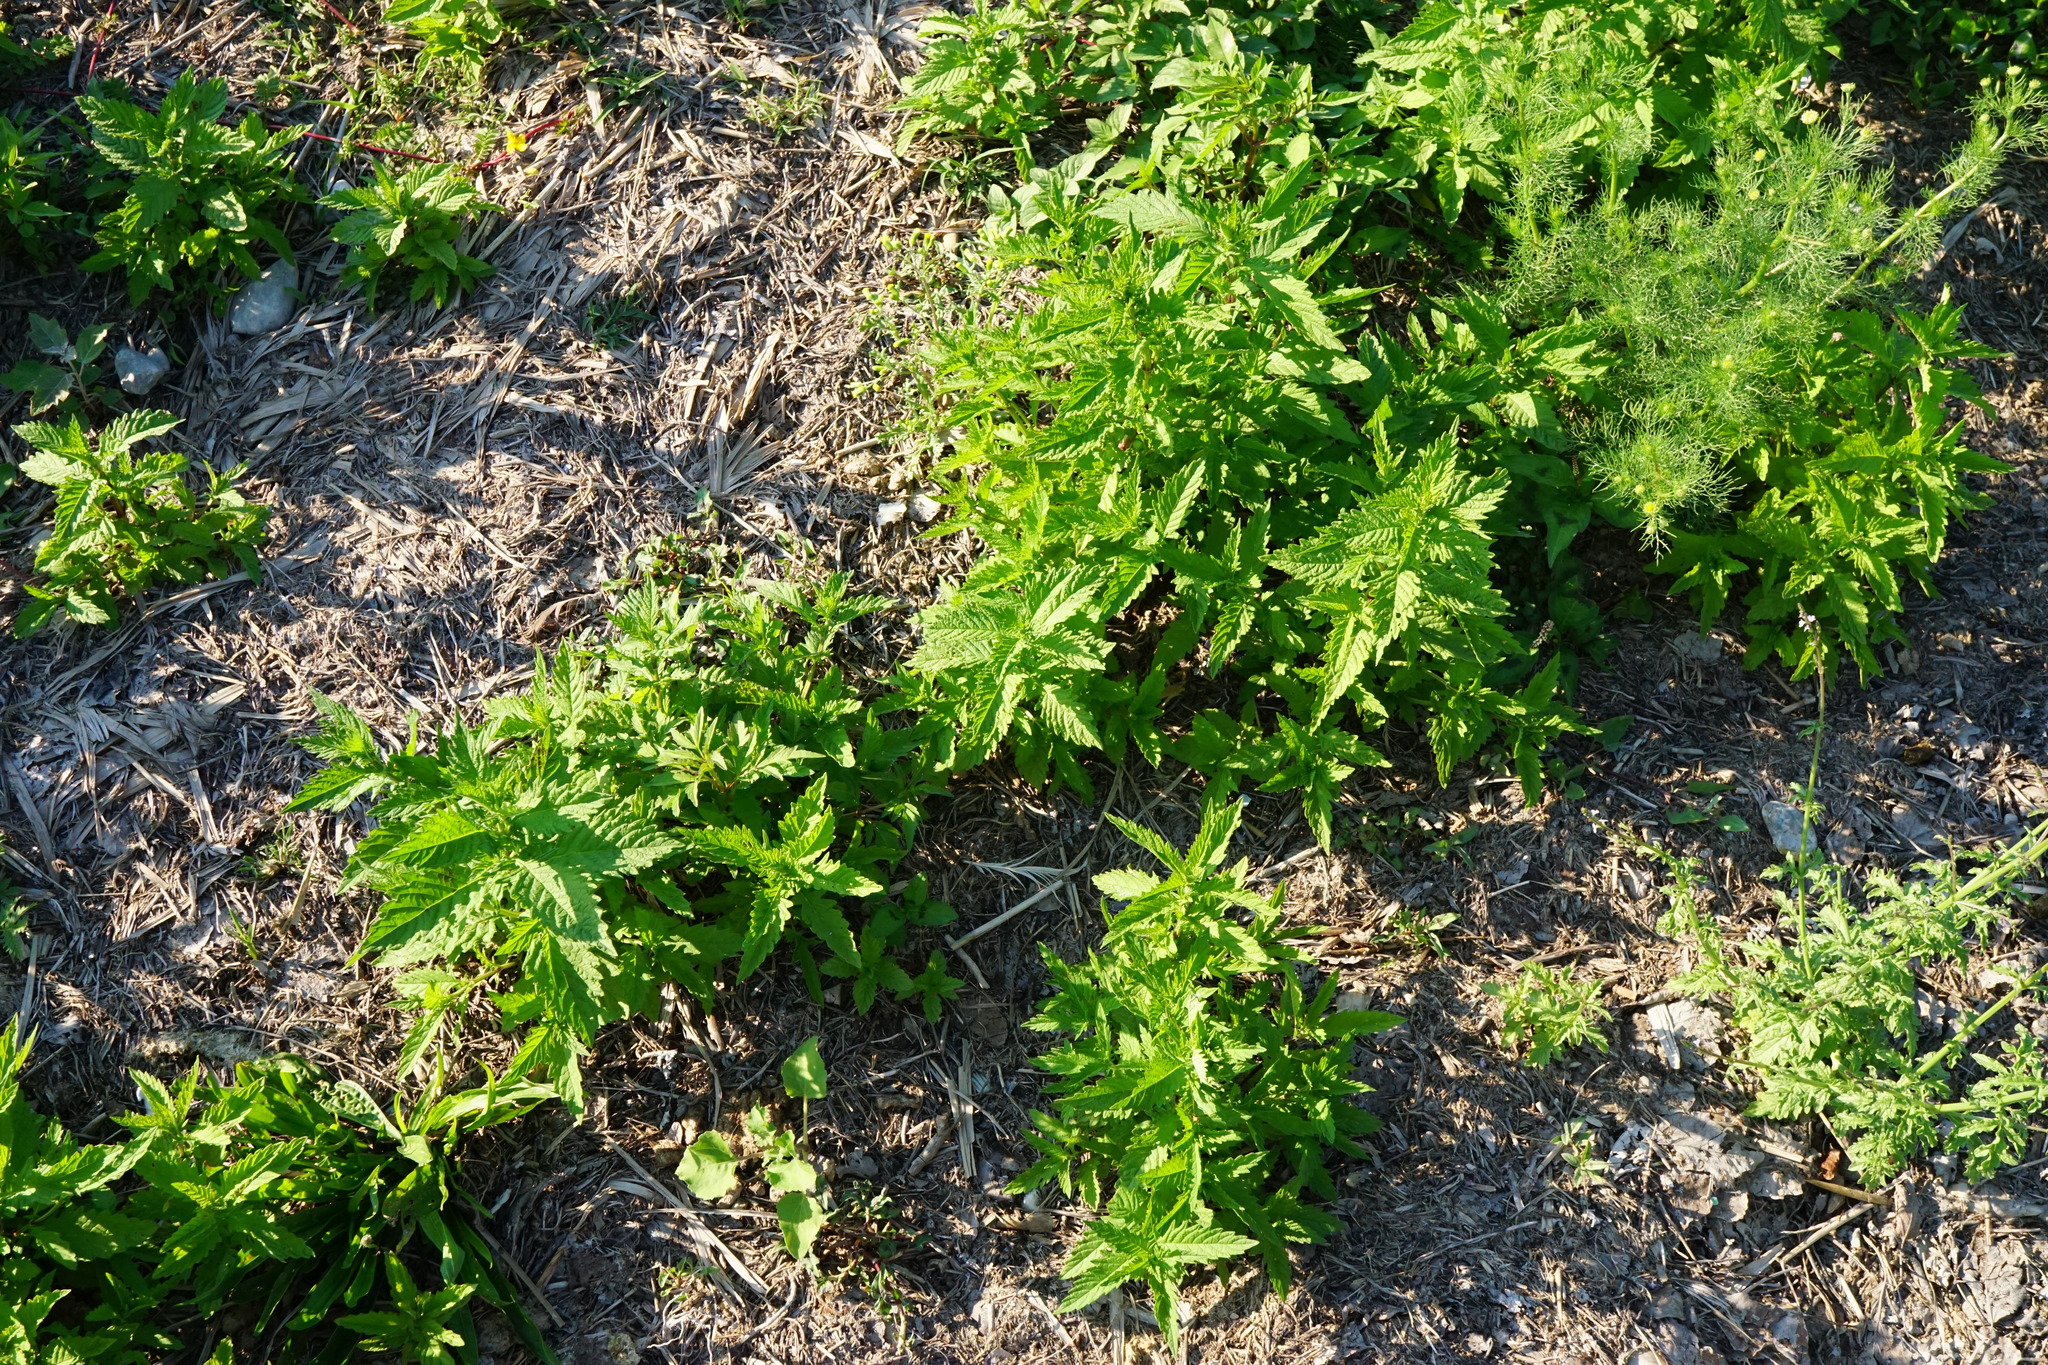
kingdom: Plantae
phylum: Tracheophyta
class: Magnoliopsida
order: Lamiales
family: Lamiaceae
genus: Lycopus
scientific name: Lycopus europaeus
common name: European bugleweed
